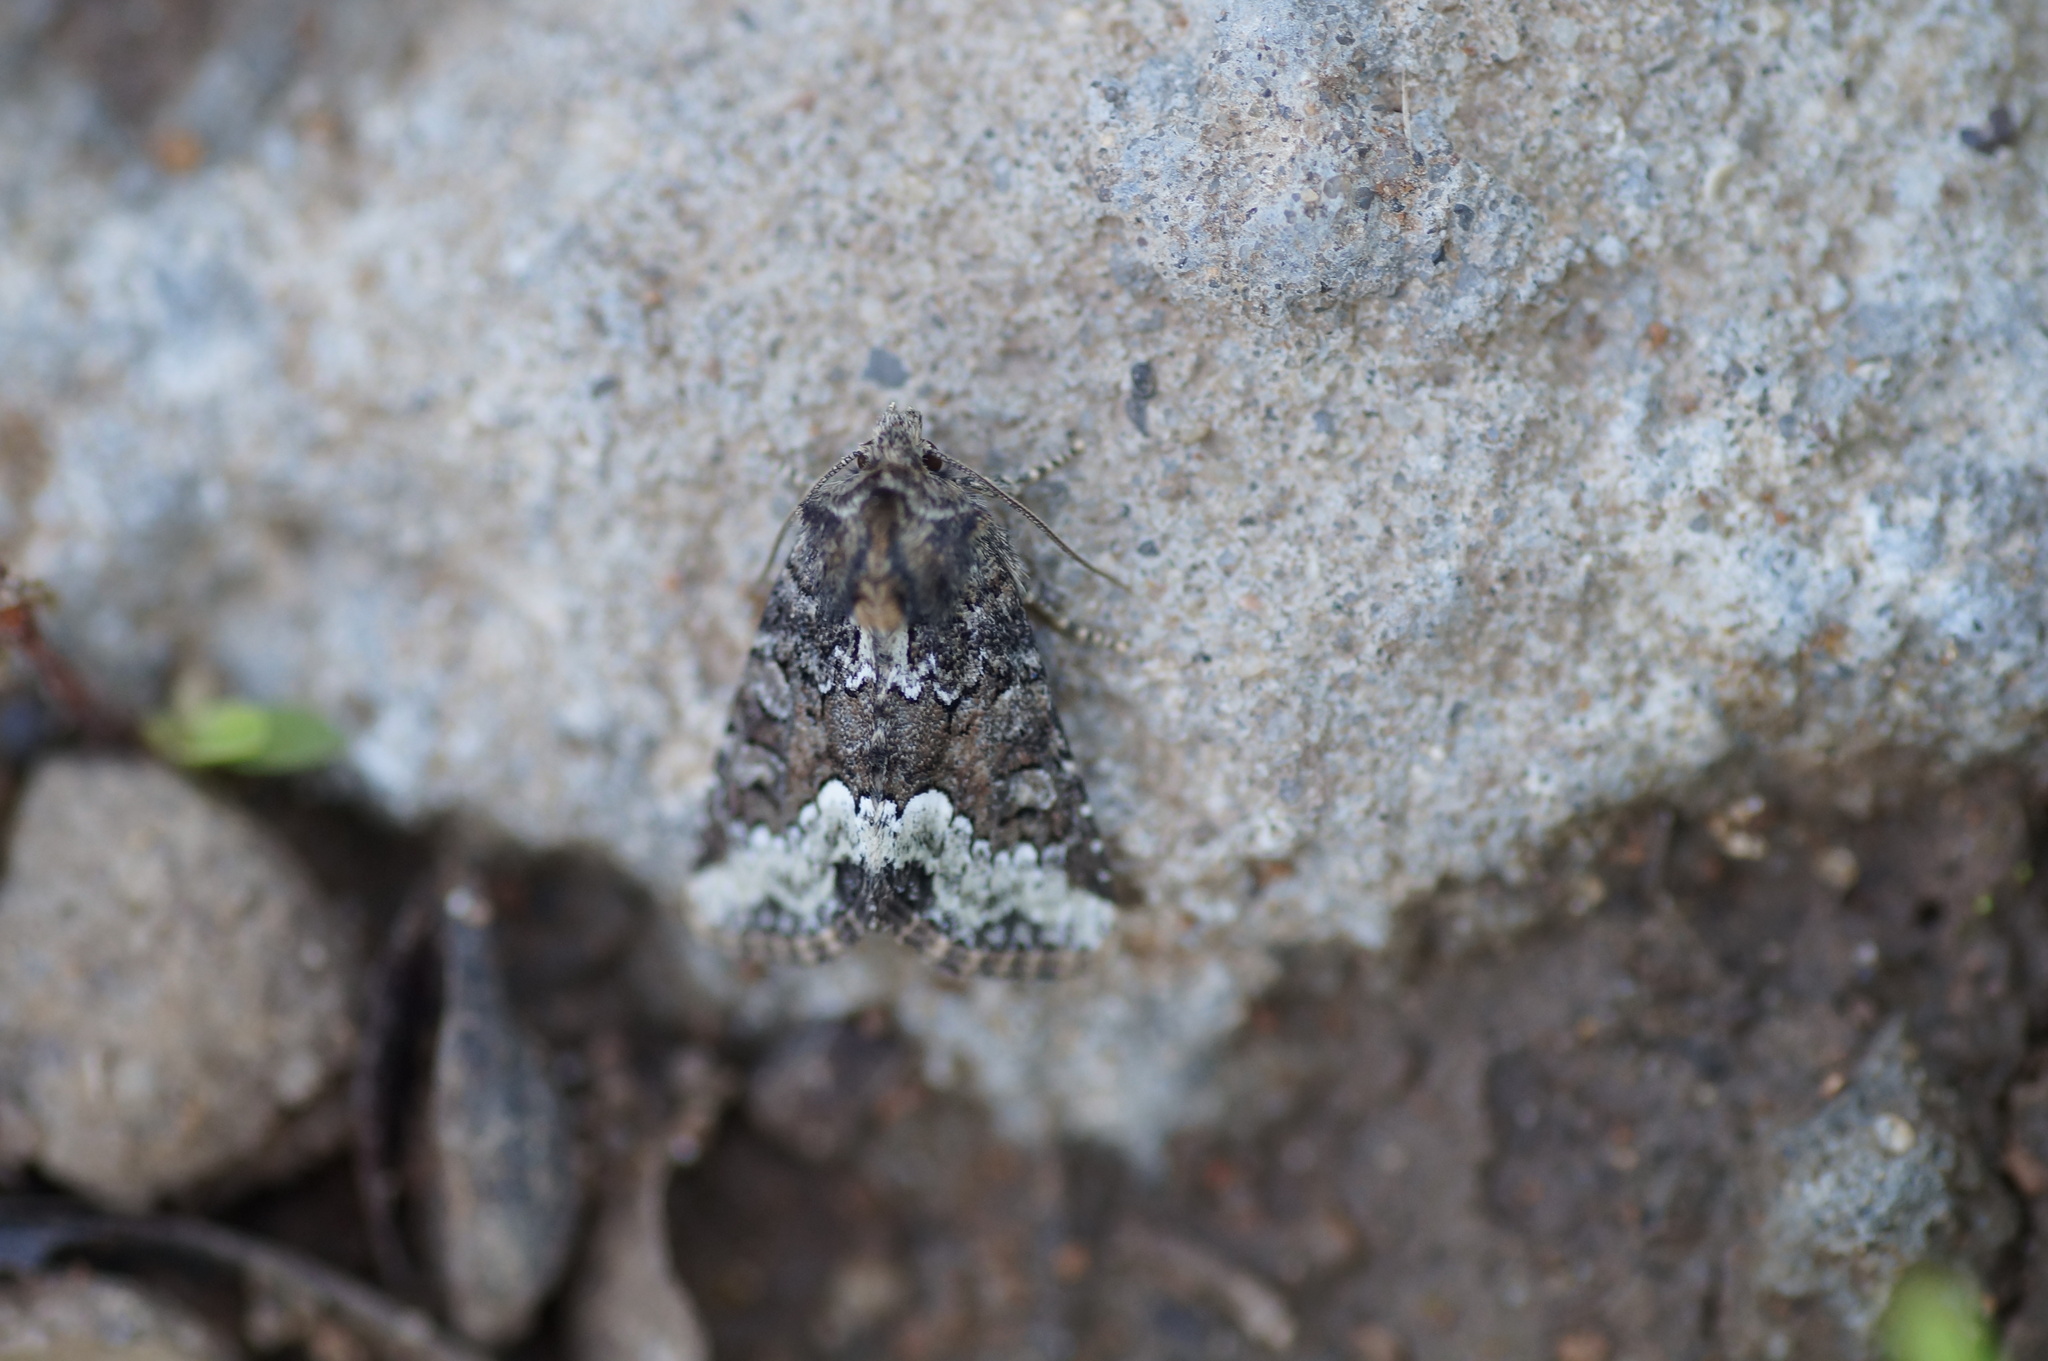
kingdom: Animalia
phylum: Arthropoda
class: Insecta
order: Lepidoptera
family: Noctuidae
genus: Oligia
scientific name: Oligia strigilis
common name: Marbled minor
